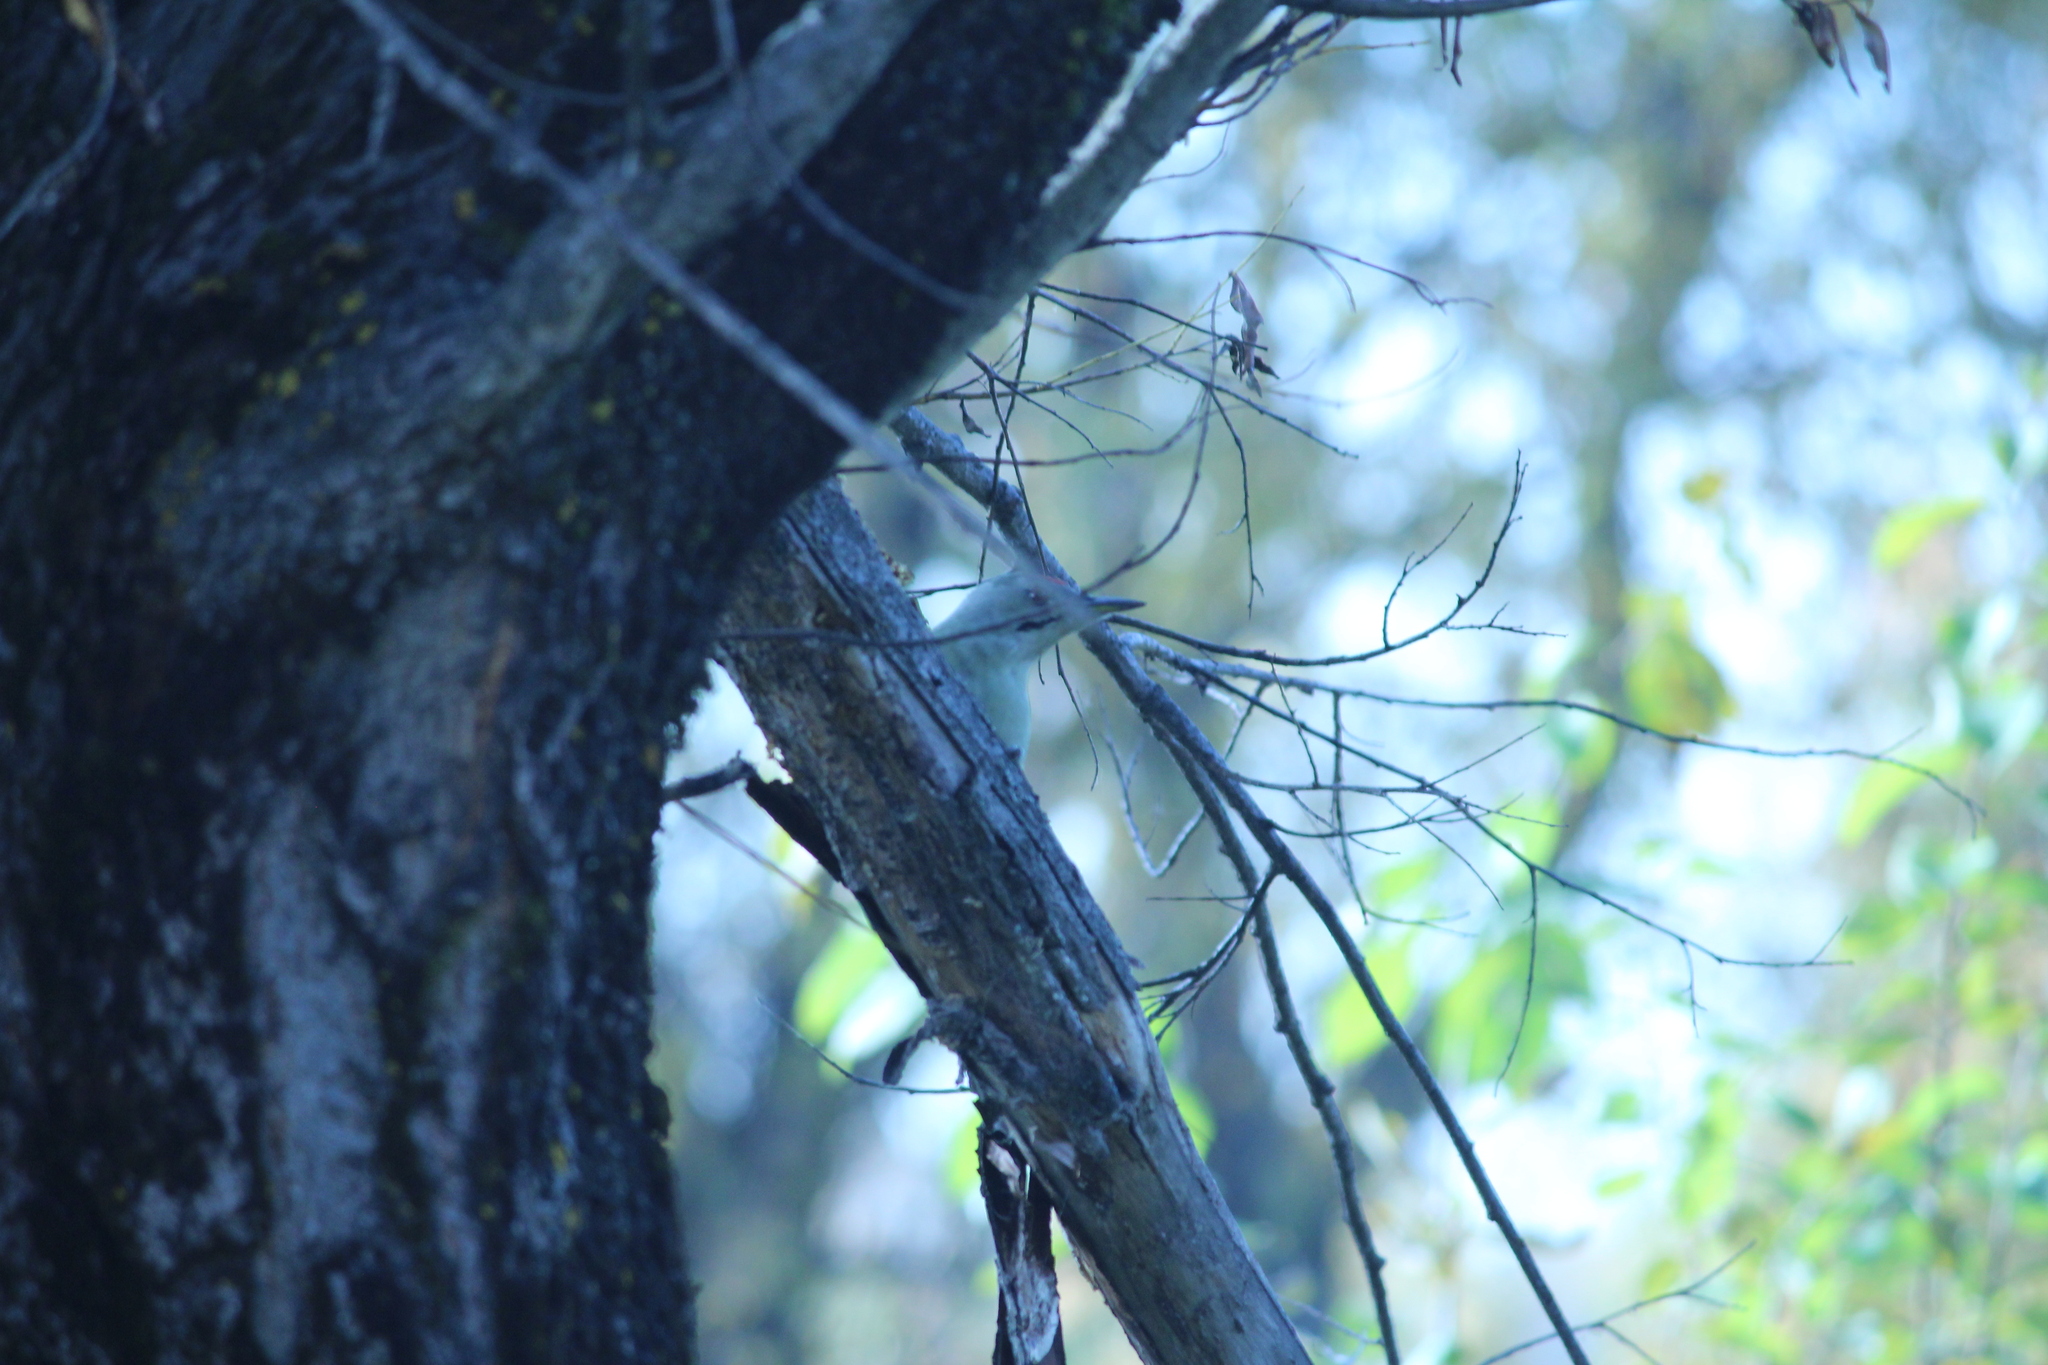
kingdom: Animalia
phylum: Chordata
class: Aves
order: Piciformes
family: Picidae
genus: Picus
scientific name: Picus canus
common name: Grey-headed woodpecker
